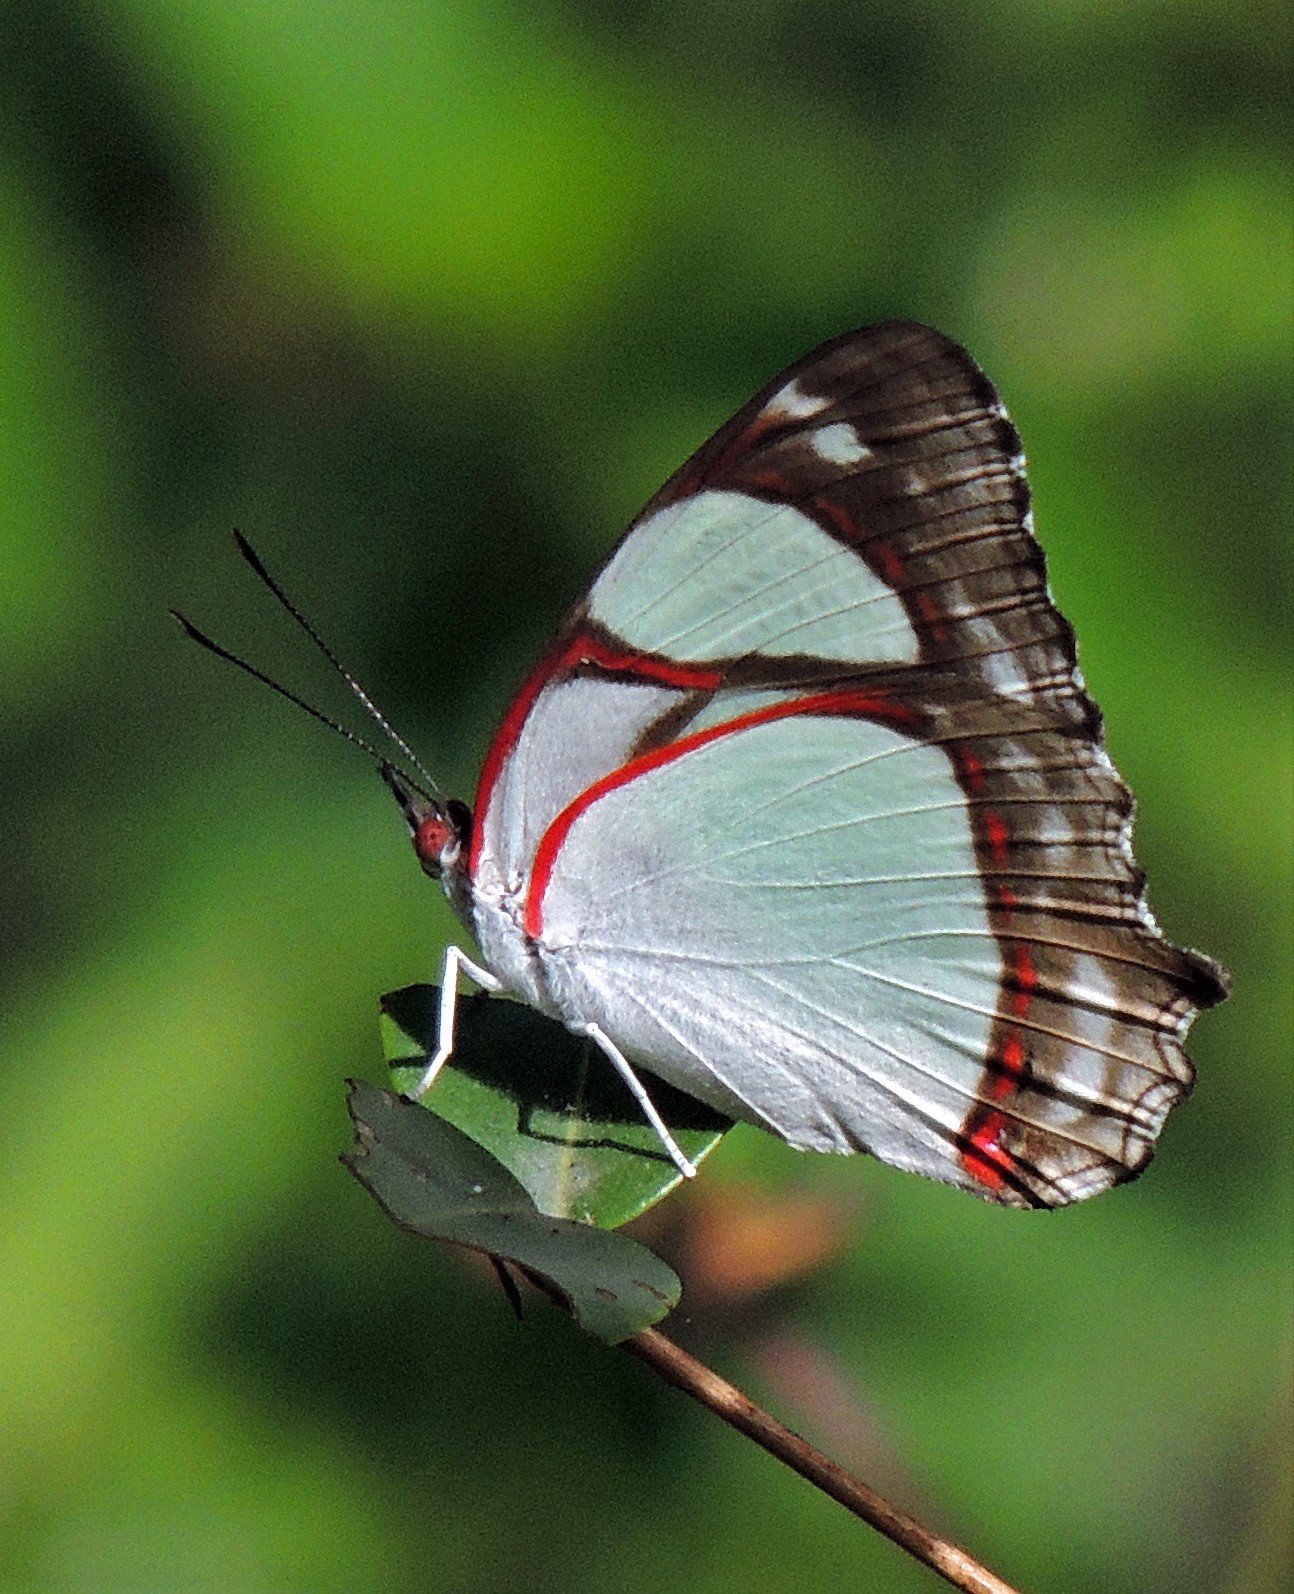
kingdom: Animalia
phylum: Arthropoda
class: Insecta
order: Lepidoptera
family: Nymphalidae
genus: Pyrrhogyra
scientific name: Pyrrhogyra neaerea
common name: Leading red-ring
